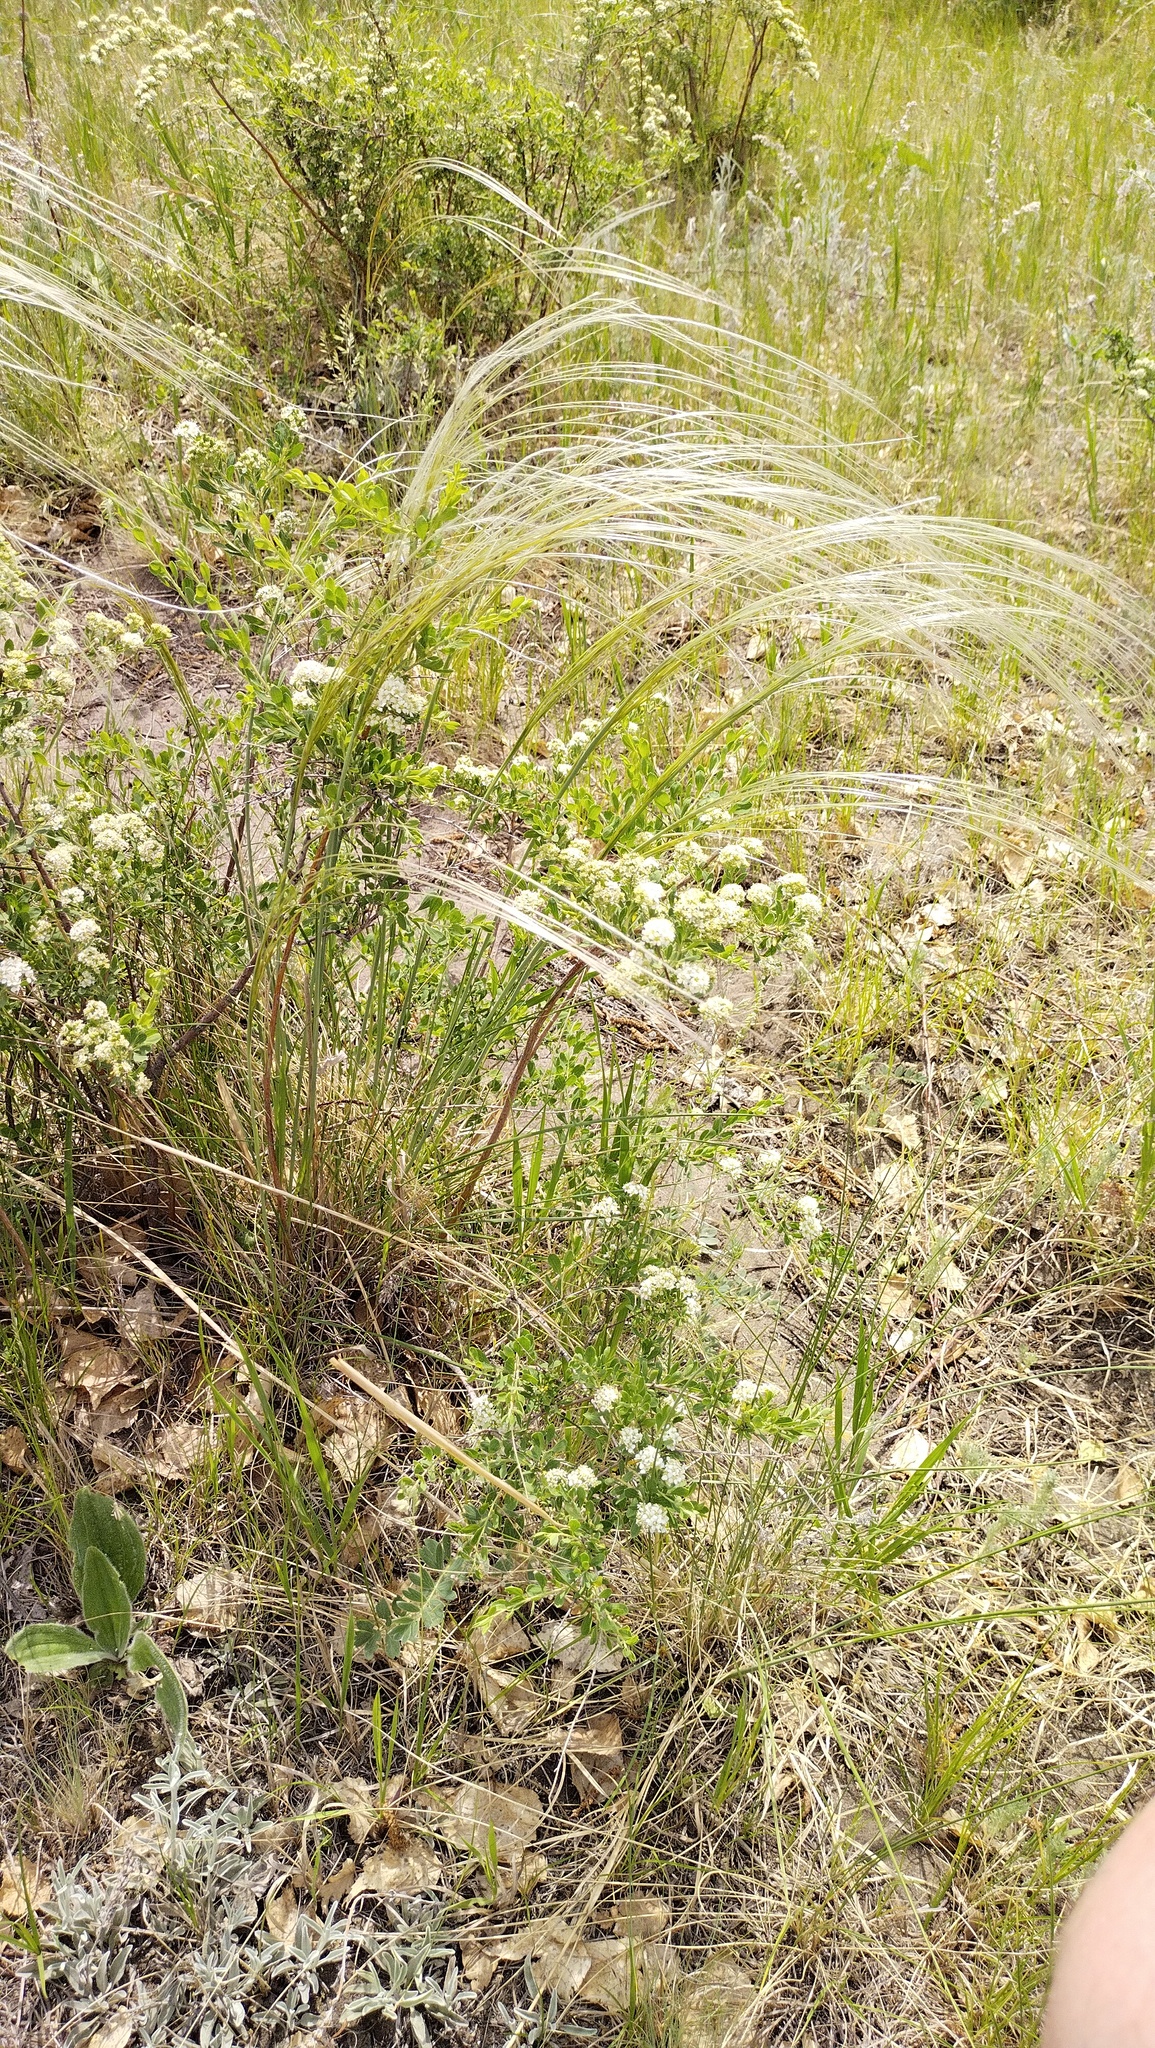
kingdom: Plantae
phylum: Tracheophyta
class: Liliopsida
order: Poales
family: Poaceae
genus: Stipa
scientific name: Stipa pennata
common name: European feather grass
